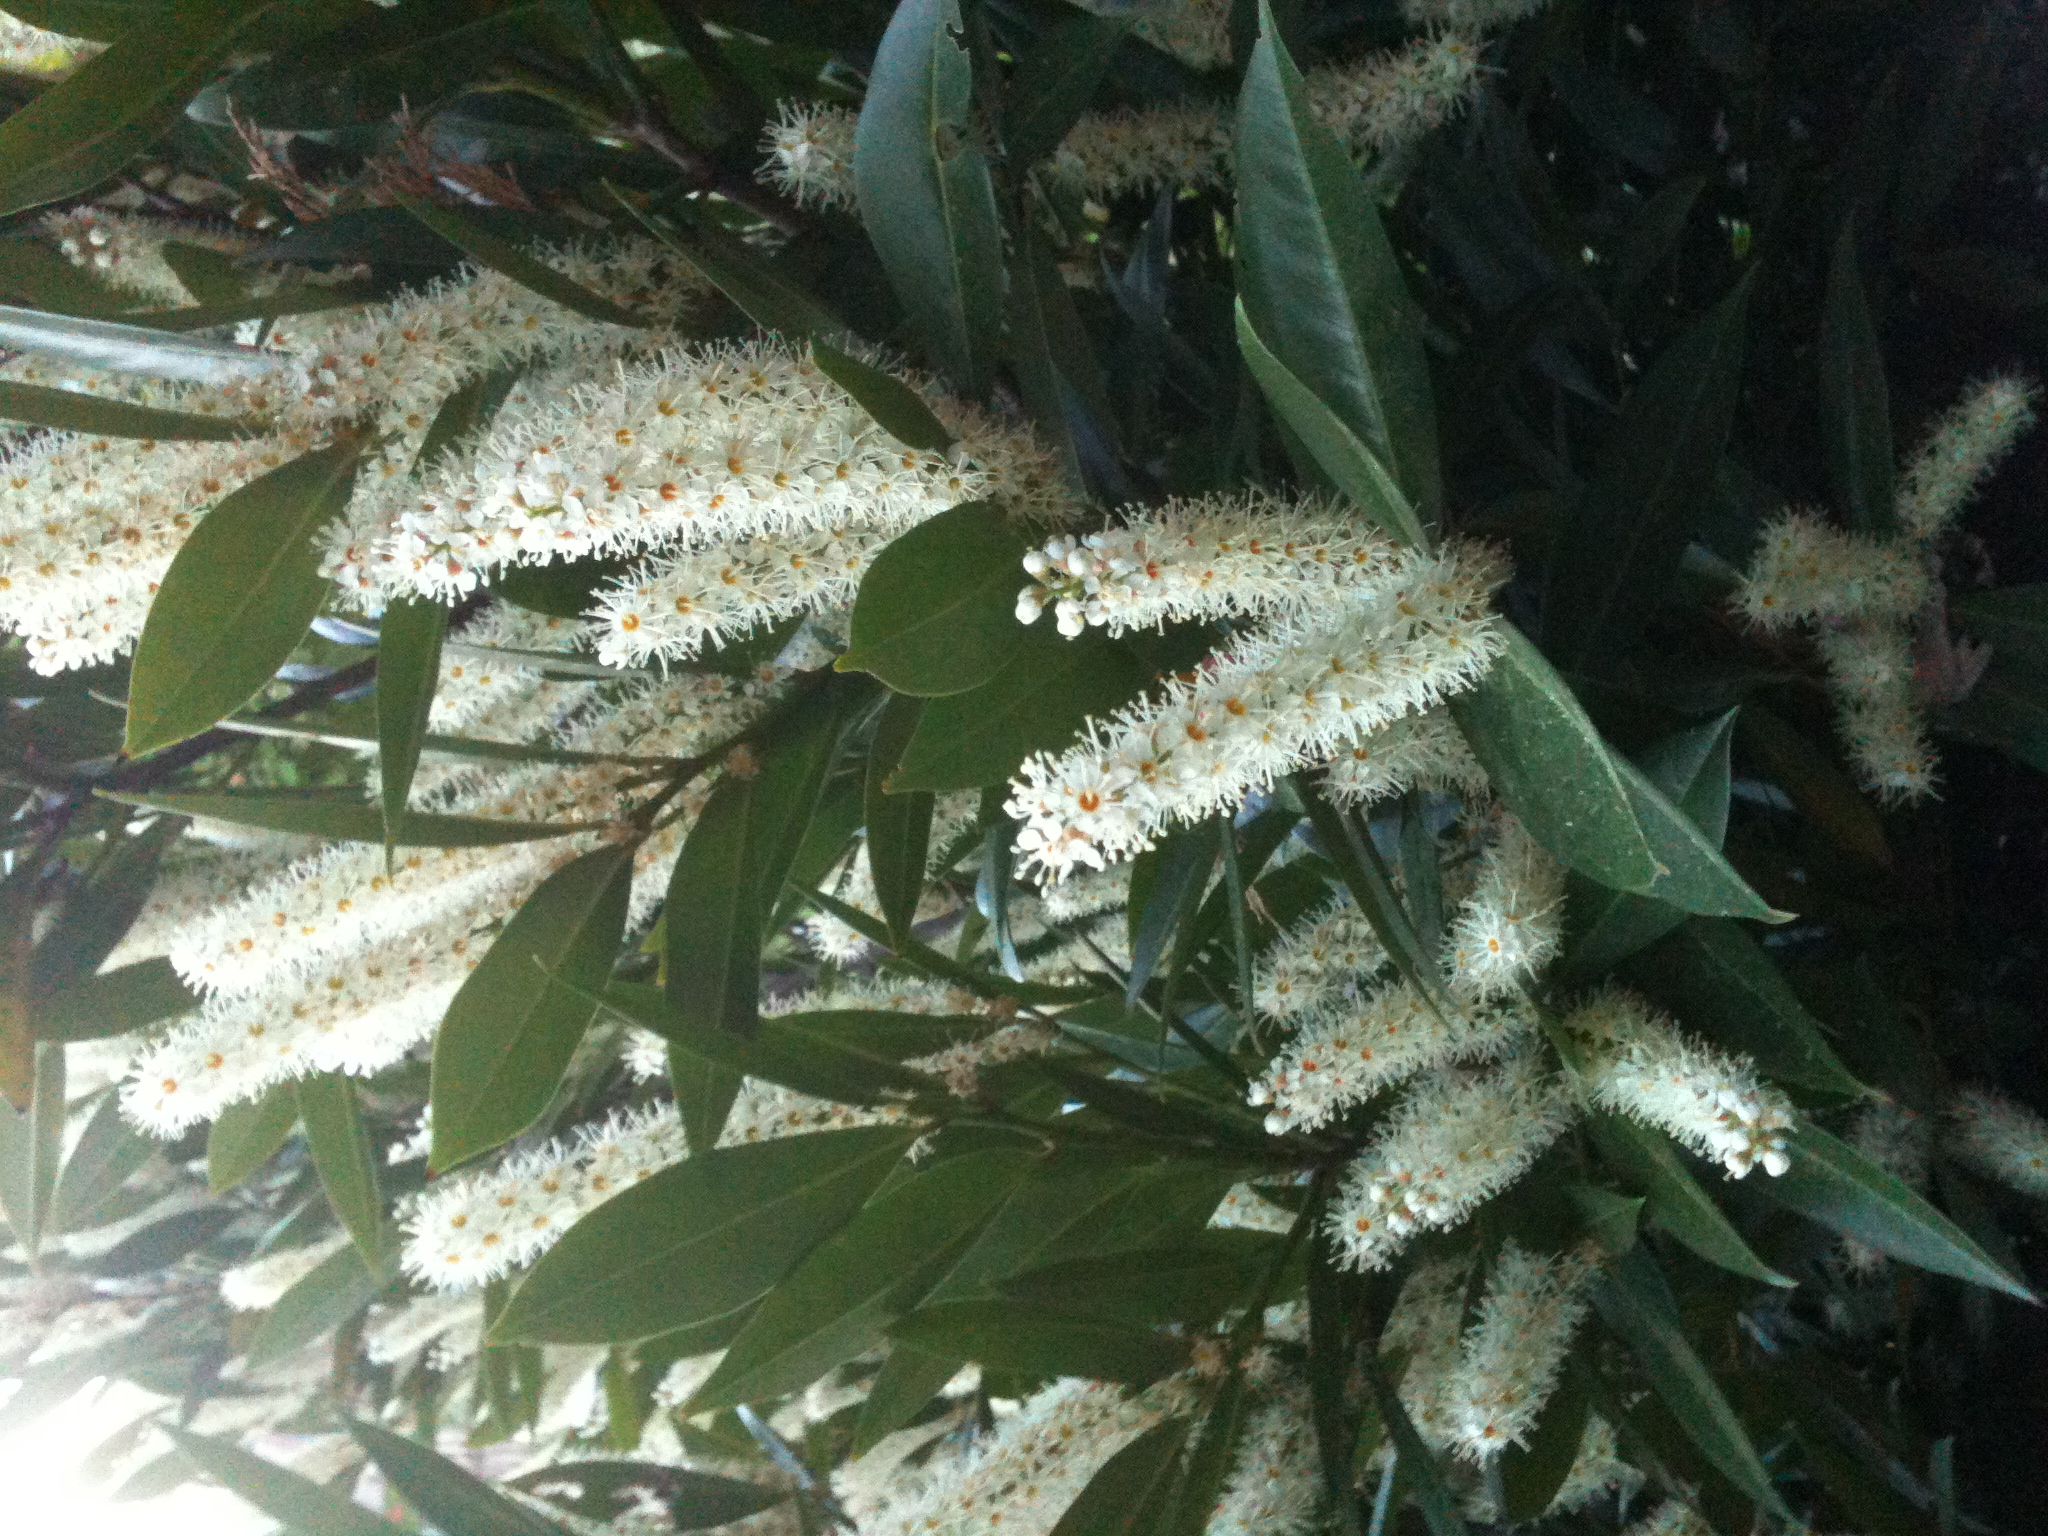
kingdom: Plantae
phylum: Tracheophyta
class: Magnoliopsida
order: Rosales
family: Rosaceae
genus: Prunus
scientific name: Prunus laurocerasus
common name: Cherry laurel
